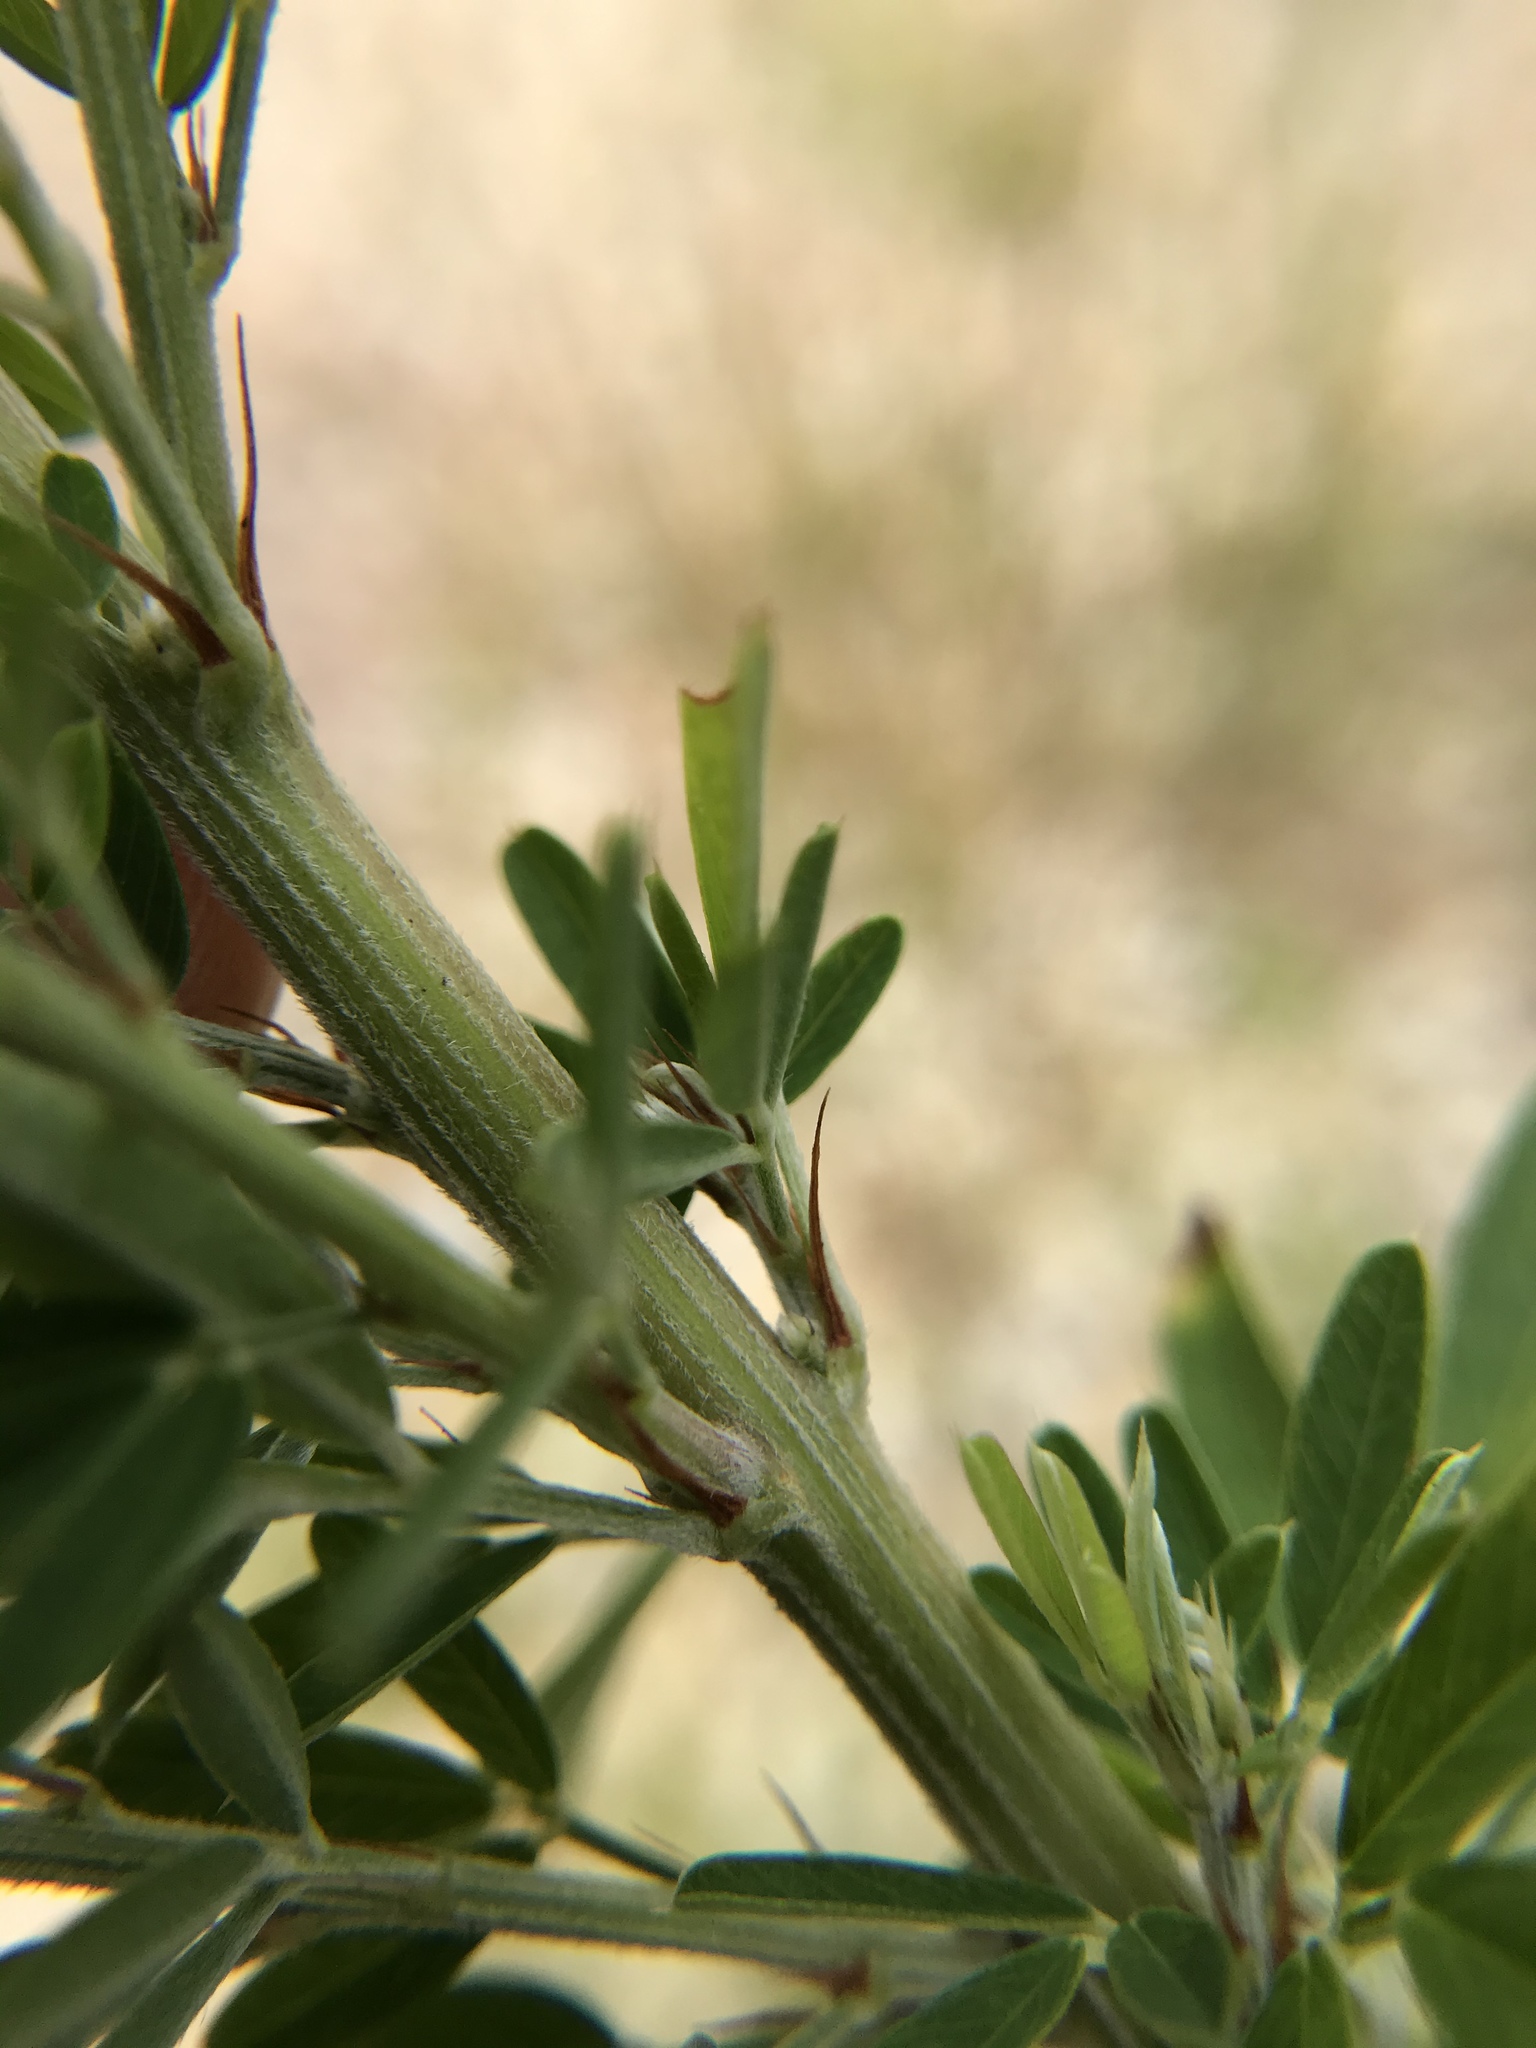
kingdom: Plantae
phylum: Tracheophyta
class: Magnoliopsida
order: Fabales
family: Fabaceae
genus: Lespedeza
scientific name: Lespedeza cuneata
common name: Chinese bush-clover
